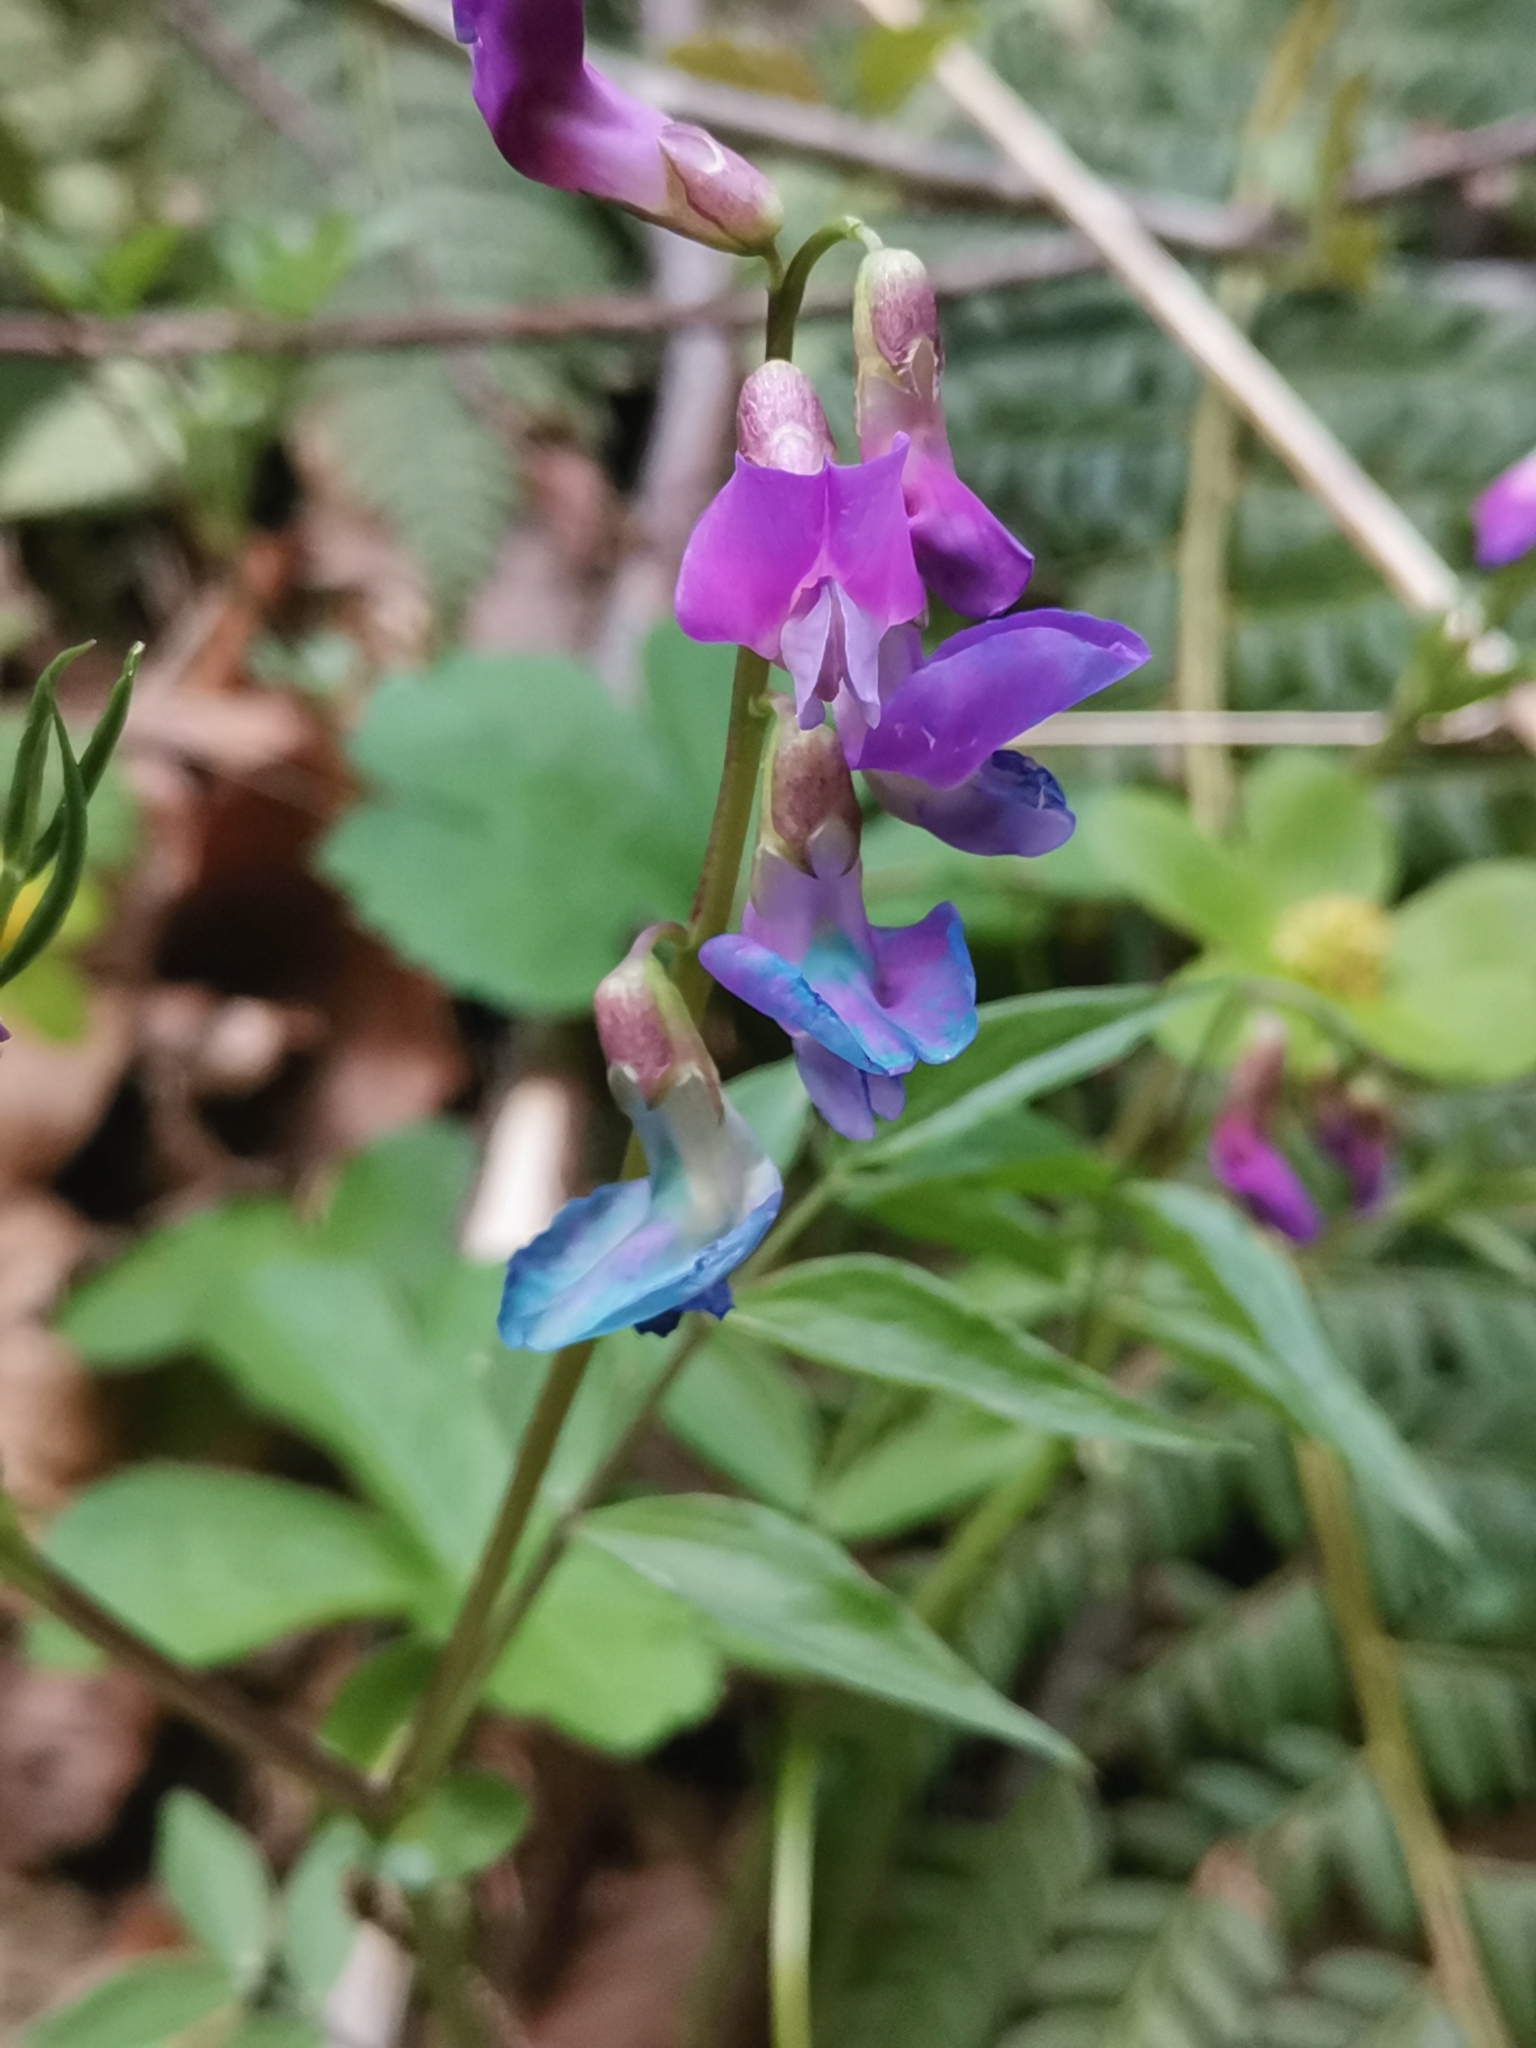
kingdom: Plantae
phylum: Tracheophyta
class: Magnoliopsida
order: Fabales
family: Fabaceae
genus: Lathyrus
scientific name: Lathyrus vernus
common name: Spring pea
